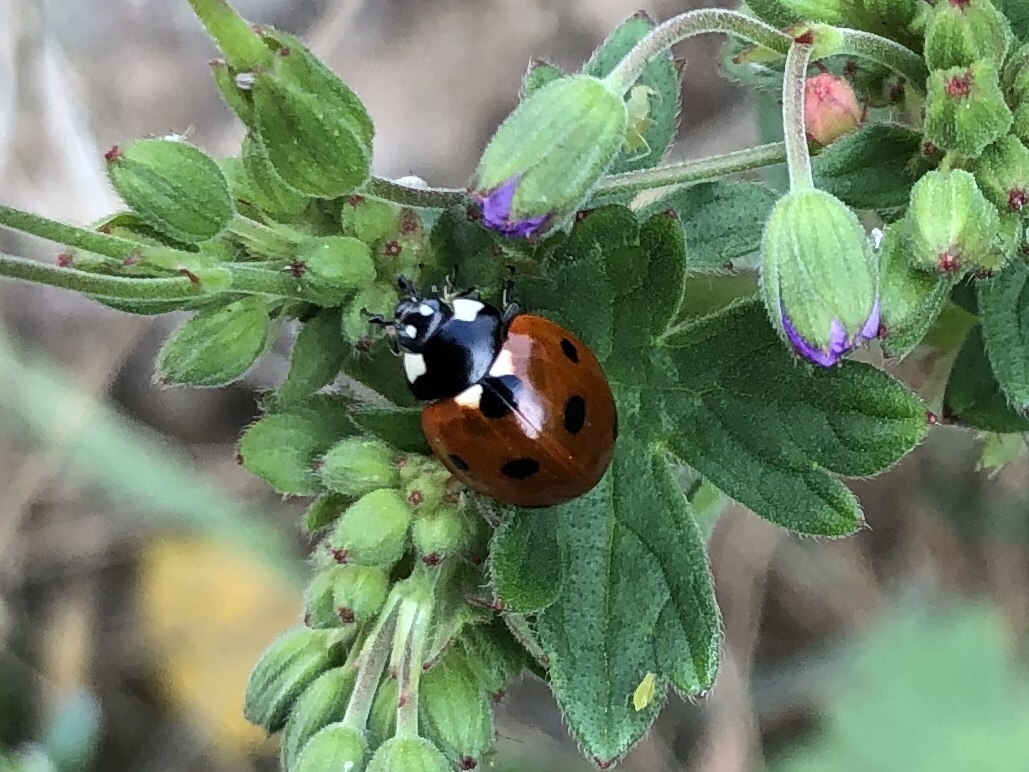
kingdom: Animalia
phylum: Arthropoda
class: Insecta
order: Coleoptera
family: Coccinellidae
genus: Coccinella
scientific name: Coccinella septempunctata
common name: Sevenspotted lady beetle
